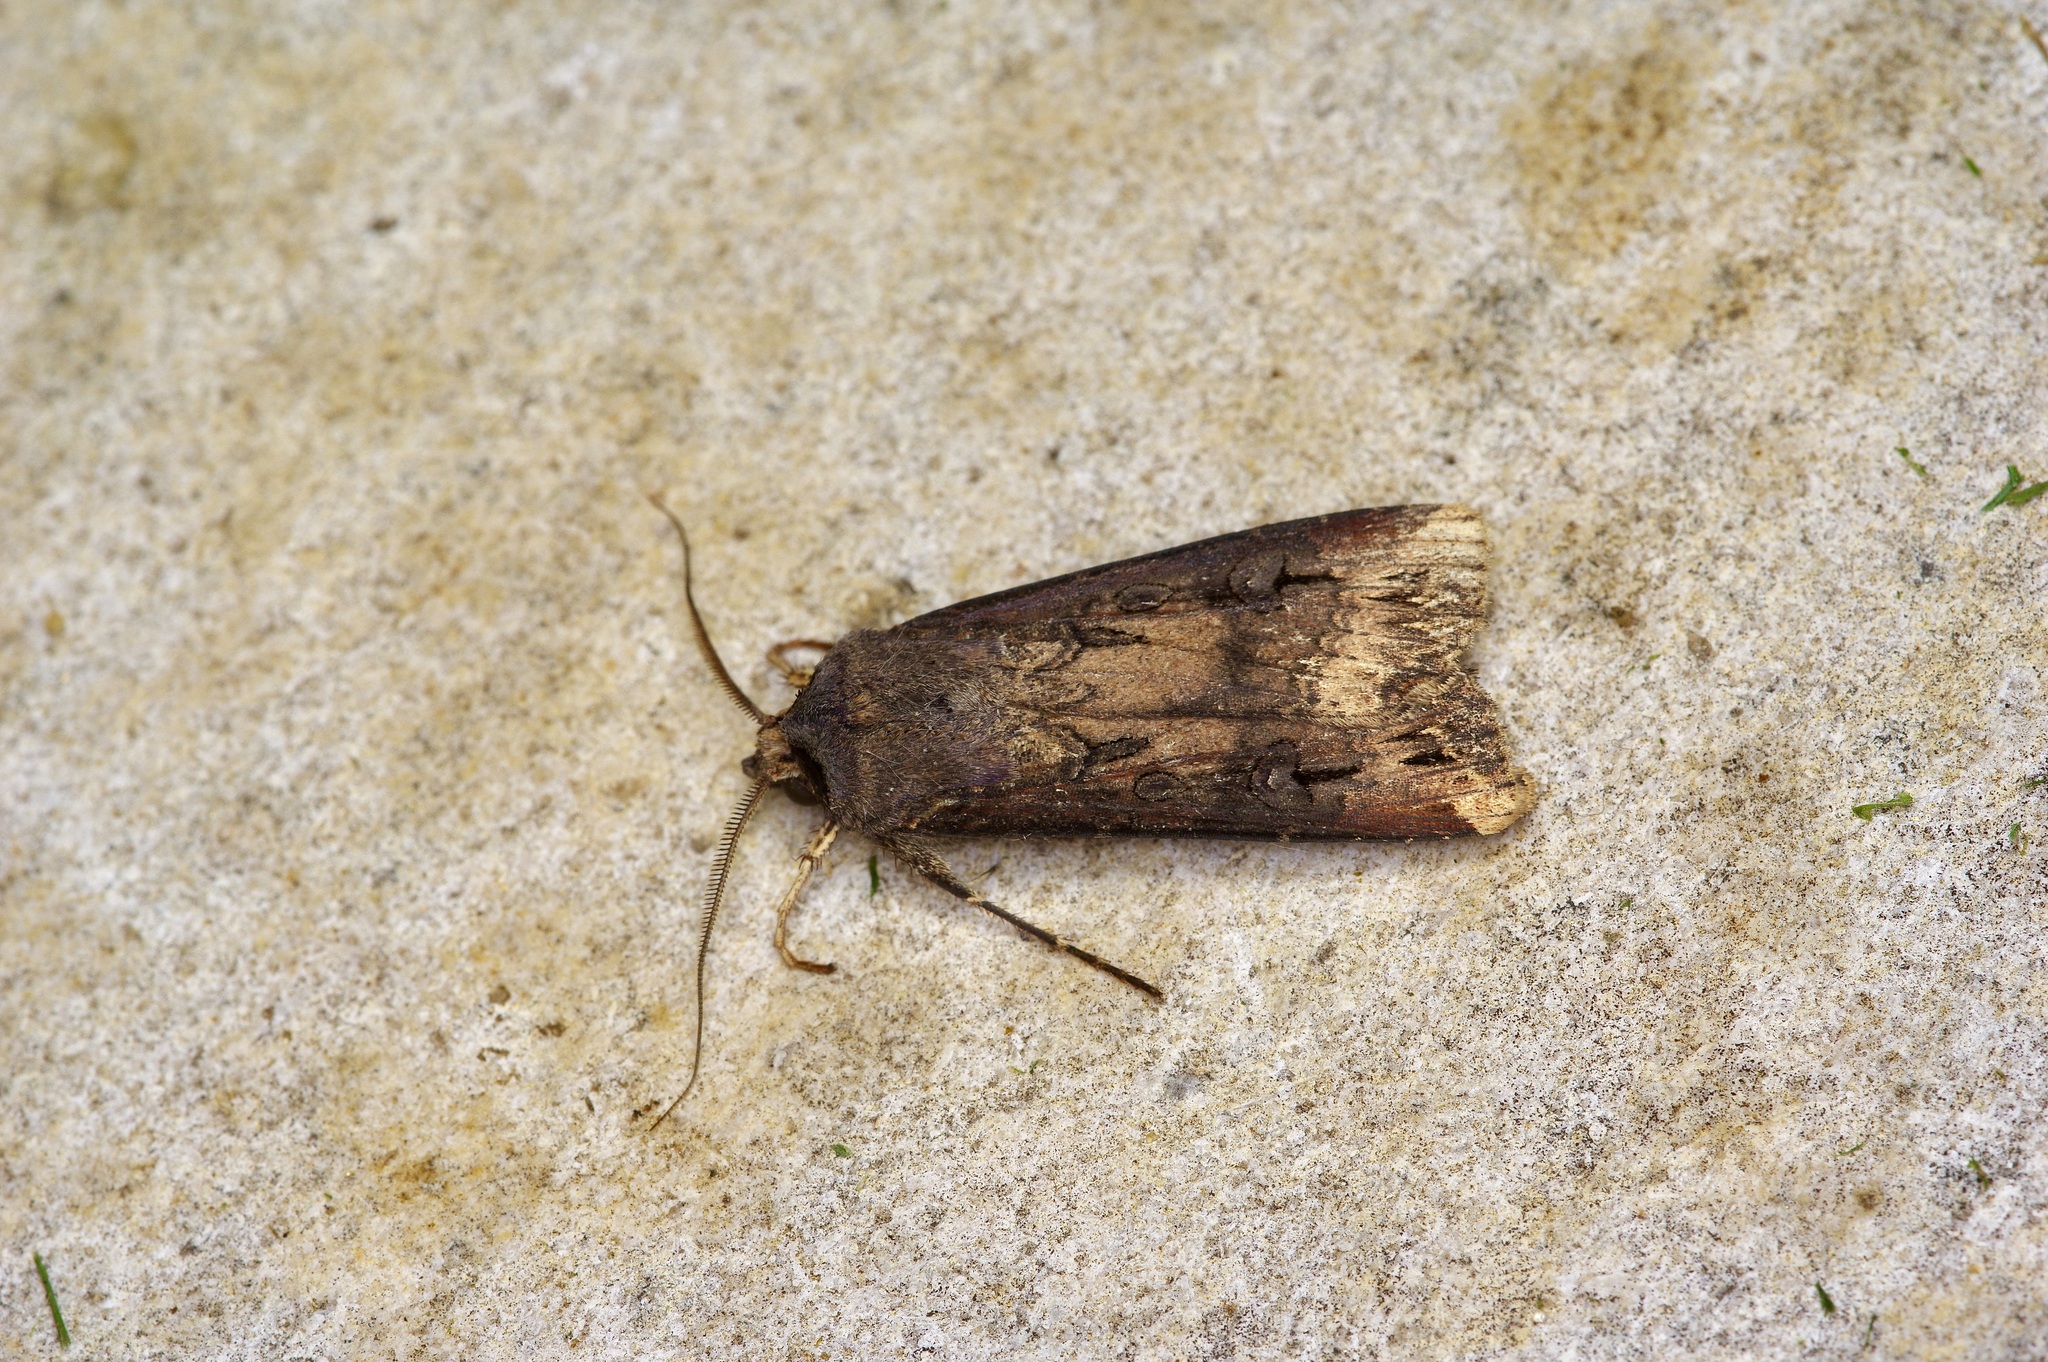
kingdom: Animalia
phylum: Arthropoda
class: Insecta
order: Lepidoptera
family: Noctuidae
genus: Agrotis
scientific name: Agrotis ipsilon
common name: Dark sword-grass
